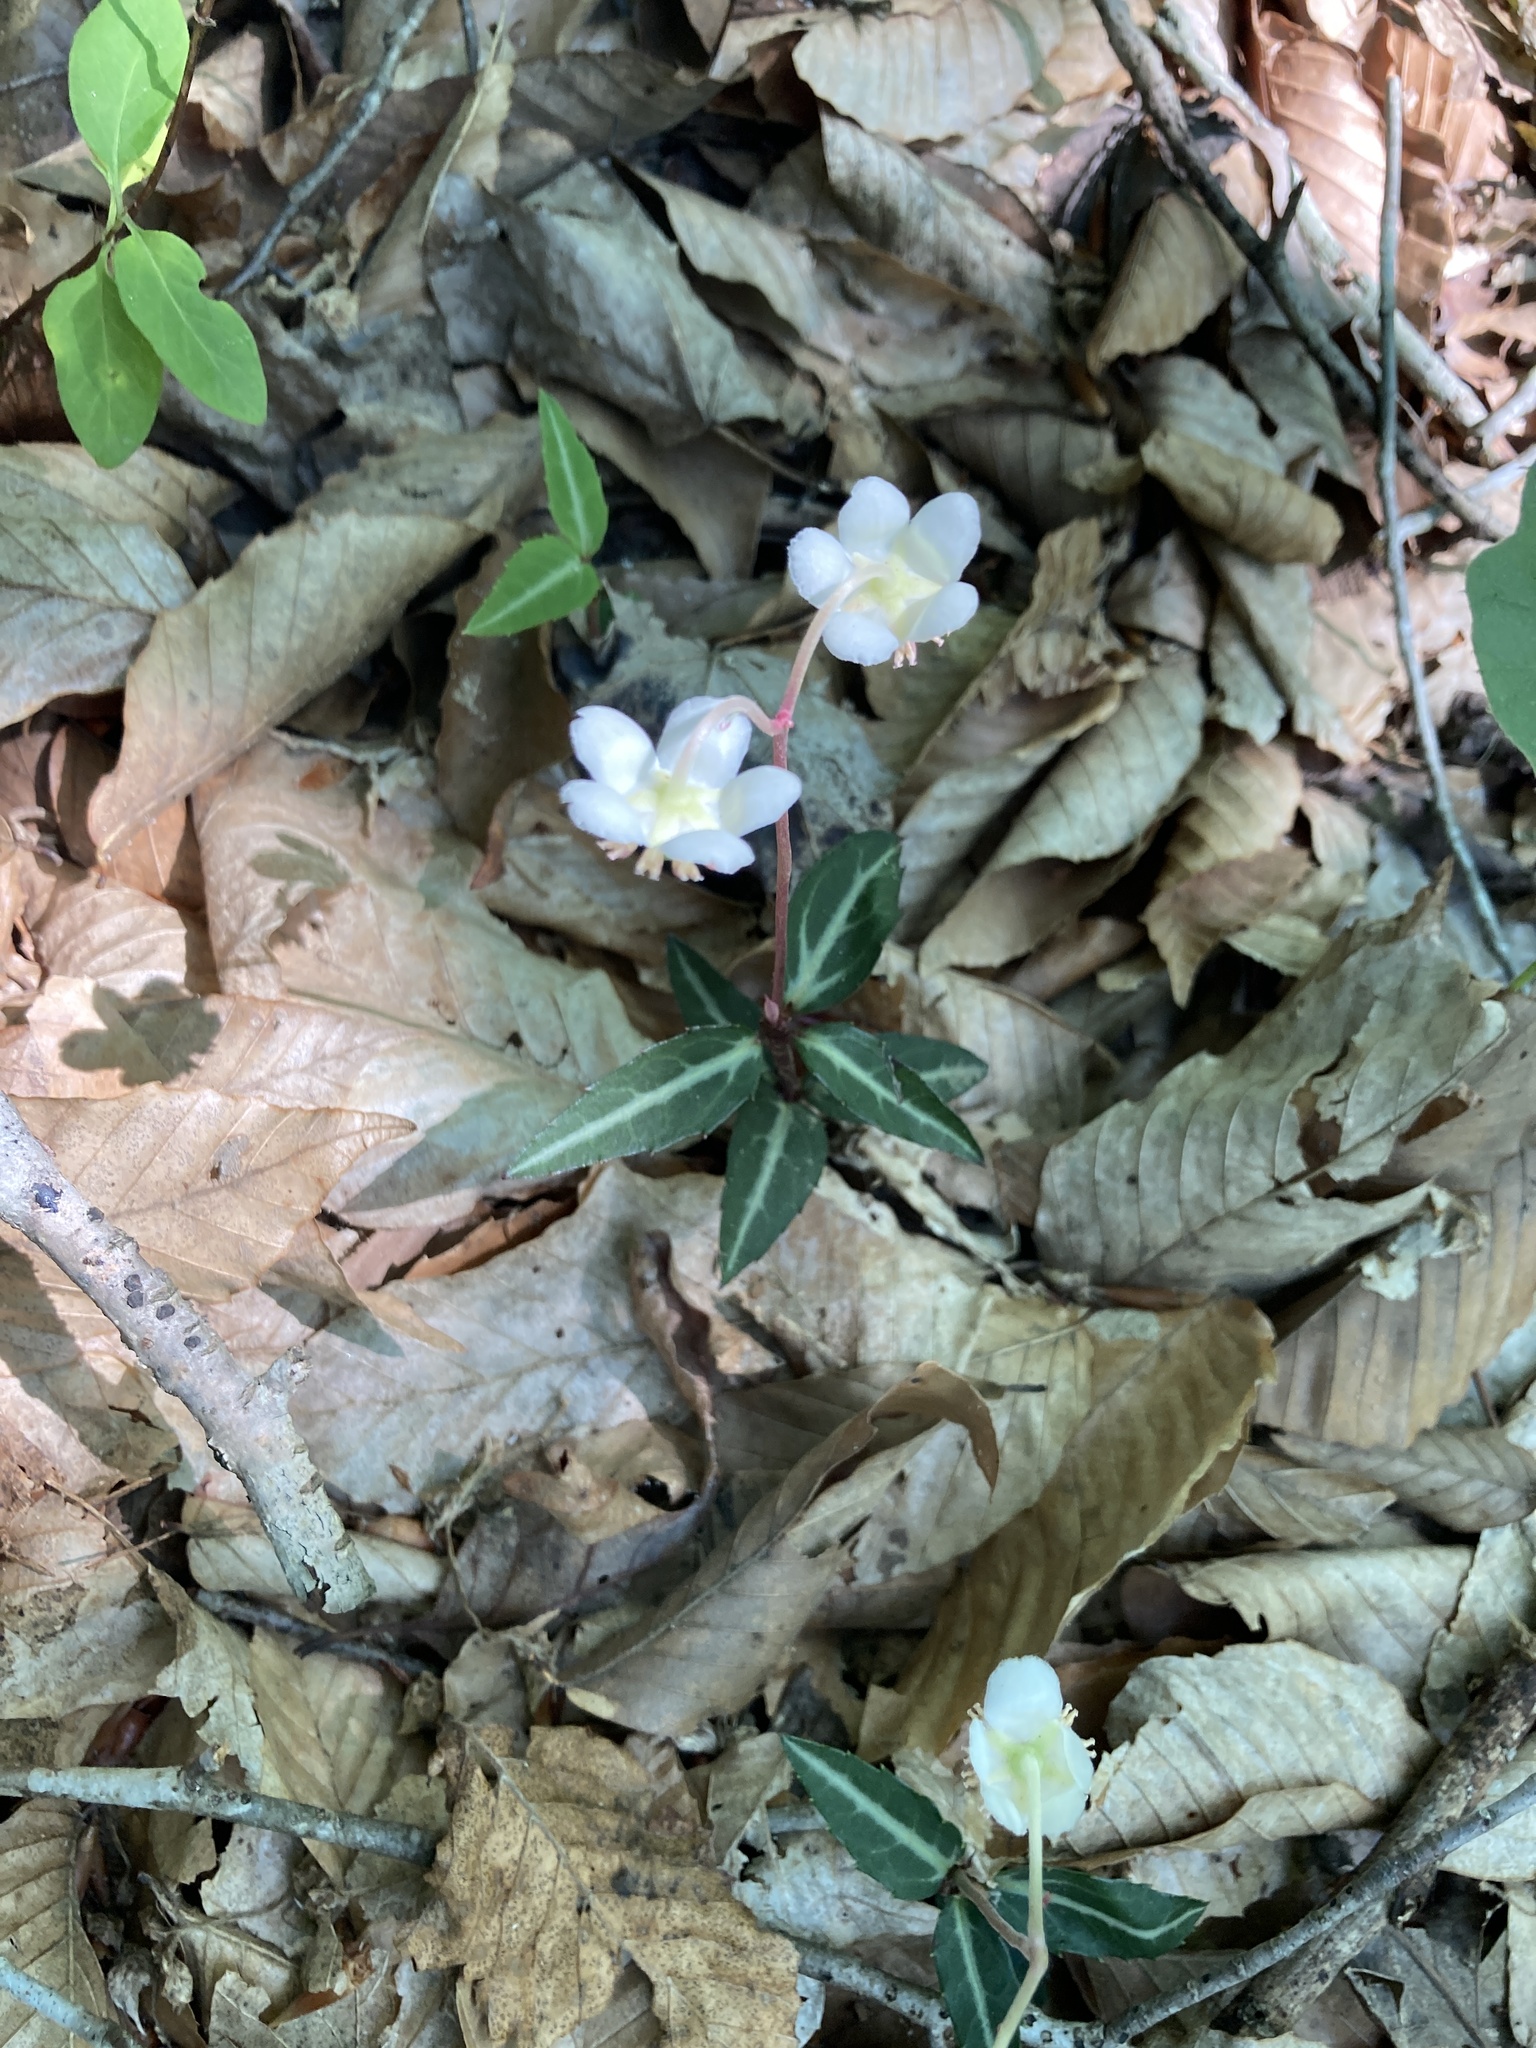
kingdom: Plantae
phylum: Tracheophyta
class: Magnoliopsida
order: Ericales
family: Ericaceae
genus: Chimaphila
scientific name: Chimaphila maculata
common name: Spotted pipsissewa
